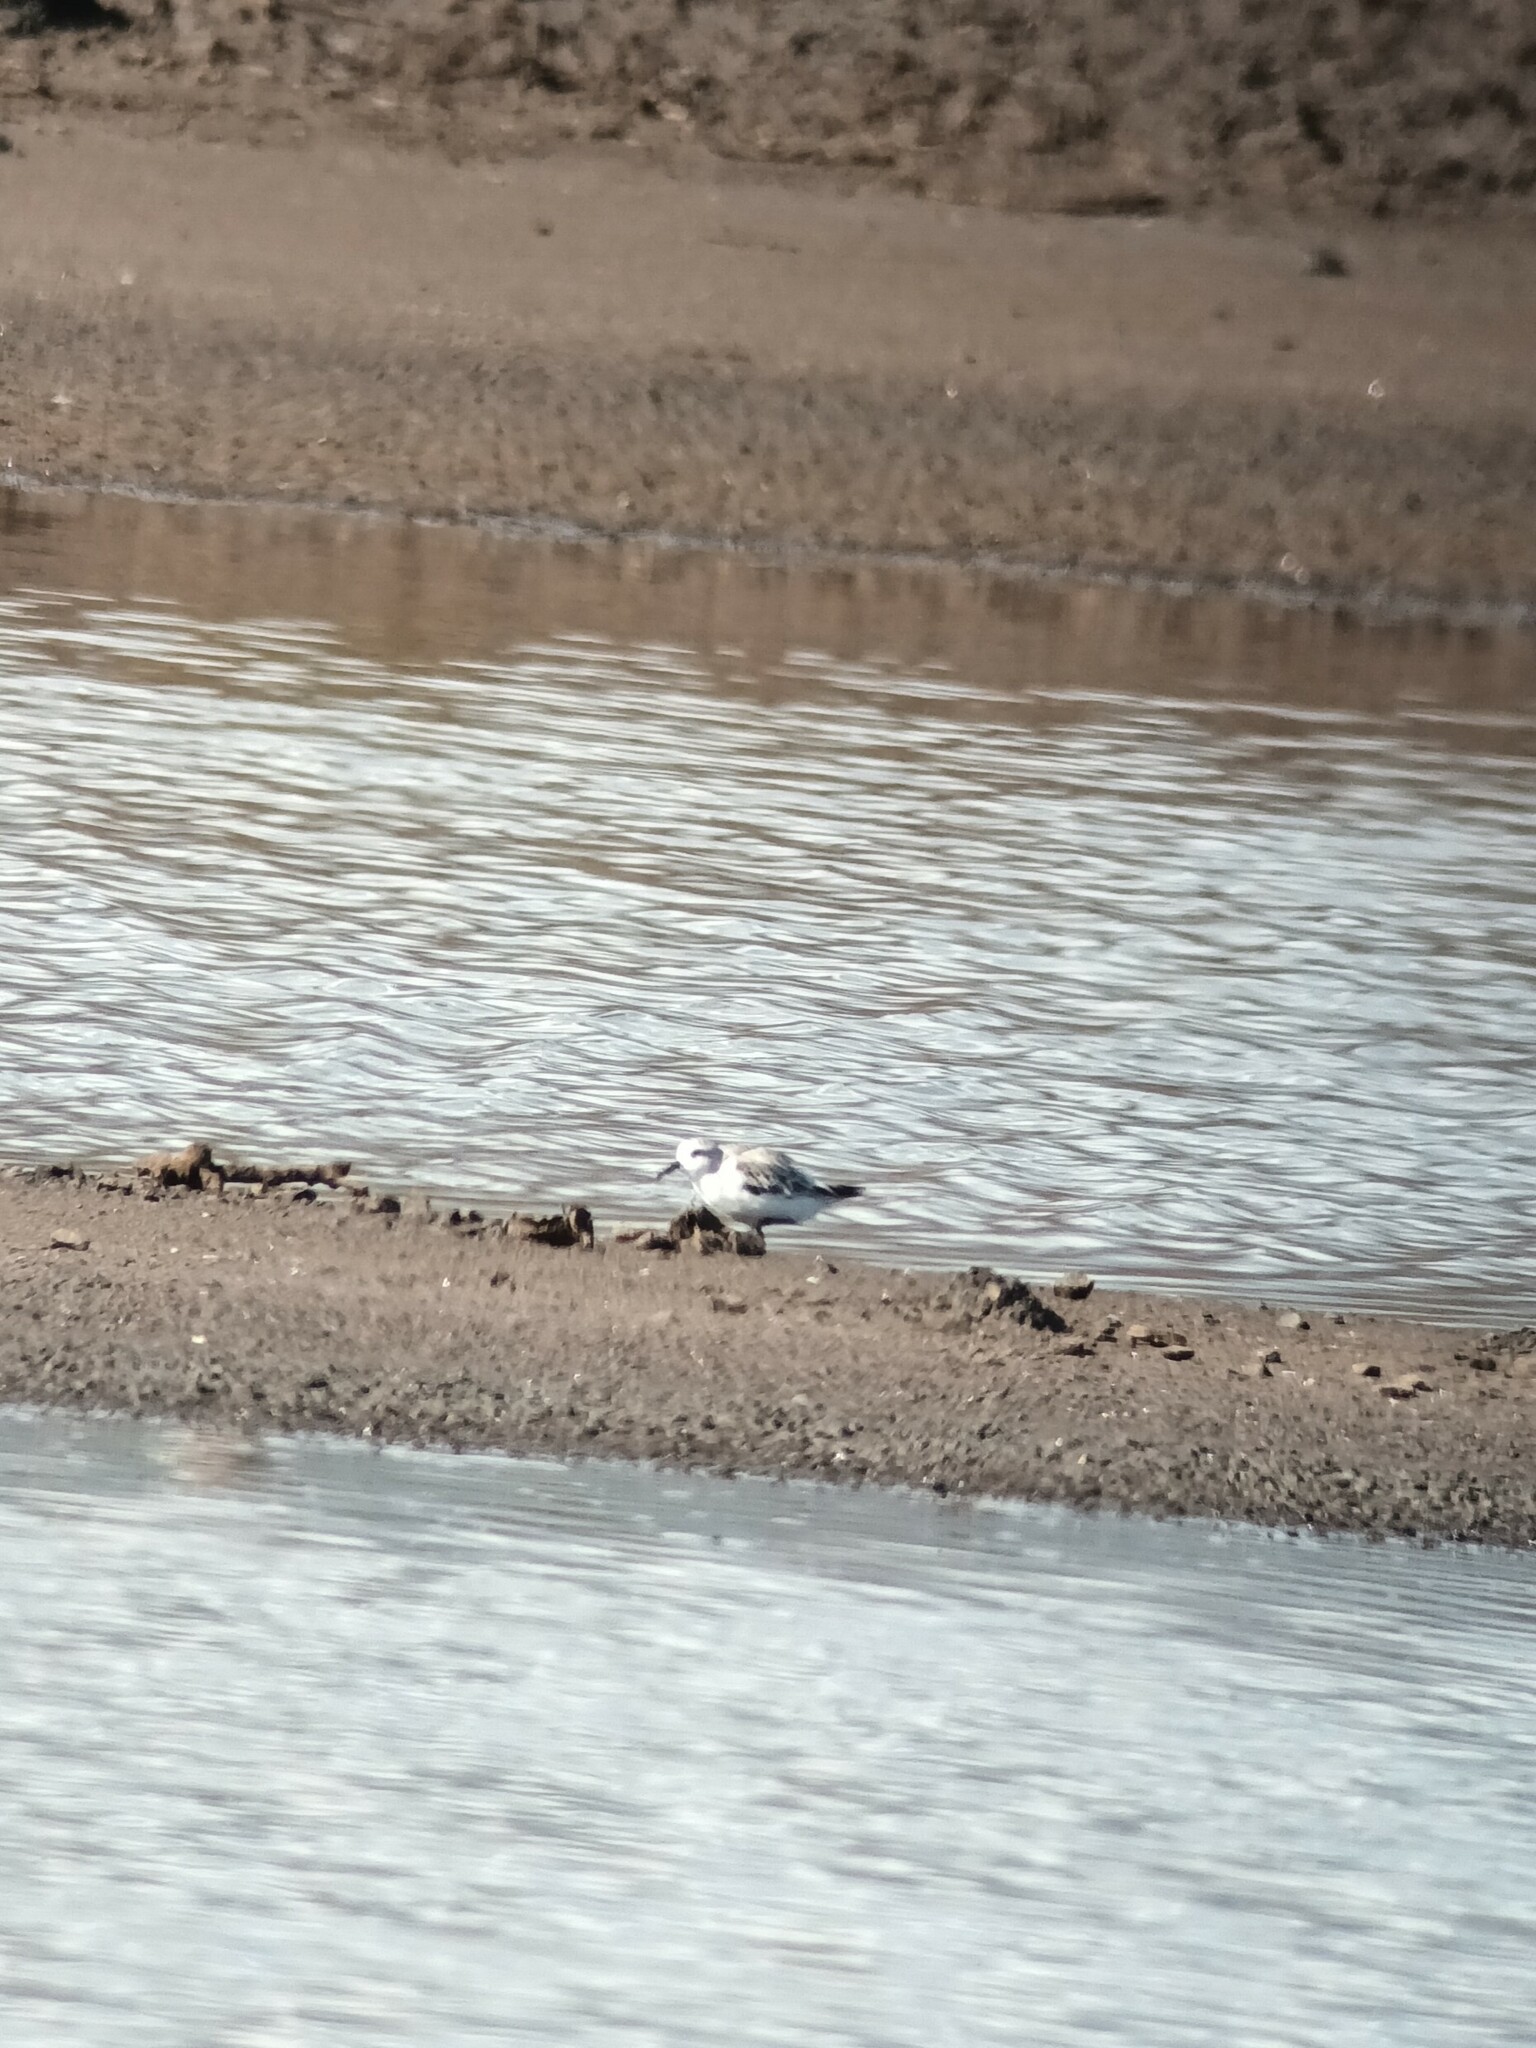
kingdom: Animalia
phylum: Chordata
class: Aves
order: Charadriiformes
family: Scolopacidae
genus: Calidris
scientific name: Calidris alba
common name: Sanderling
